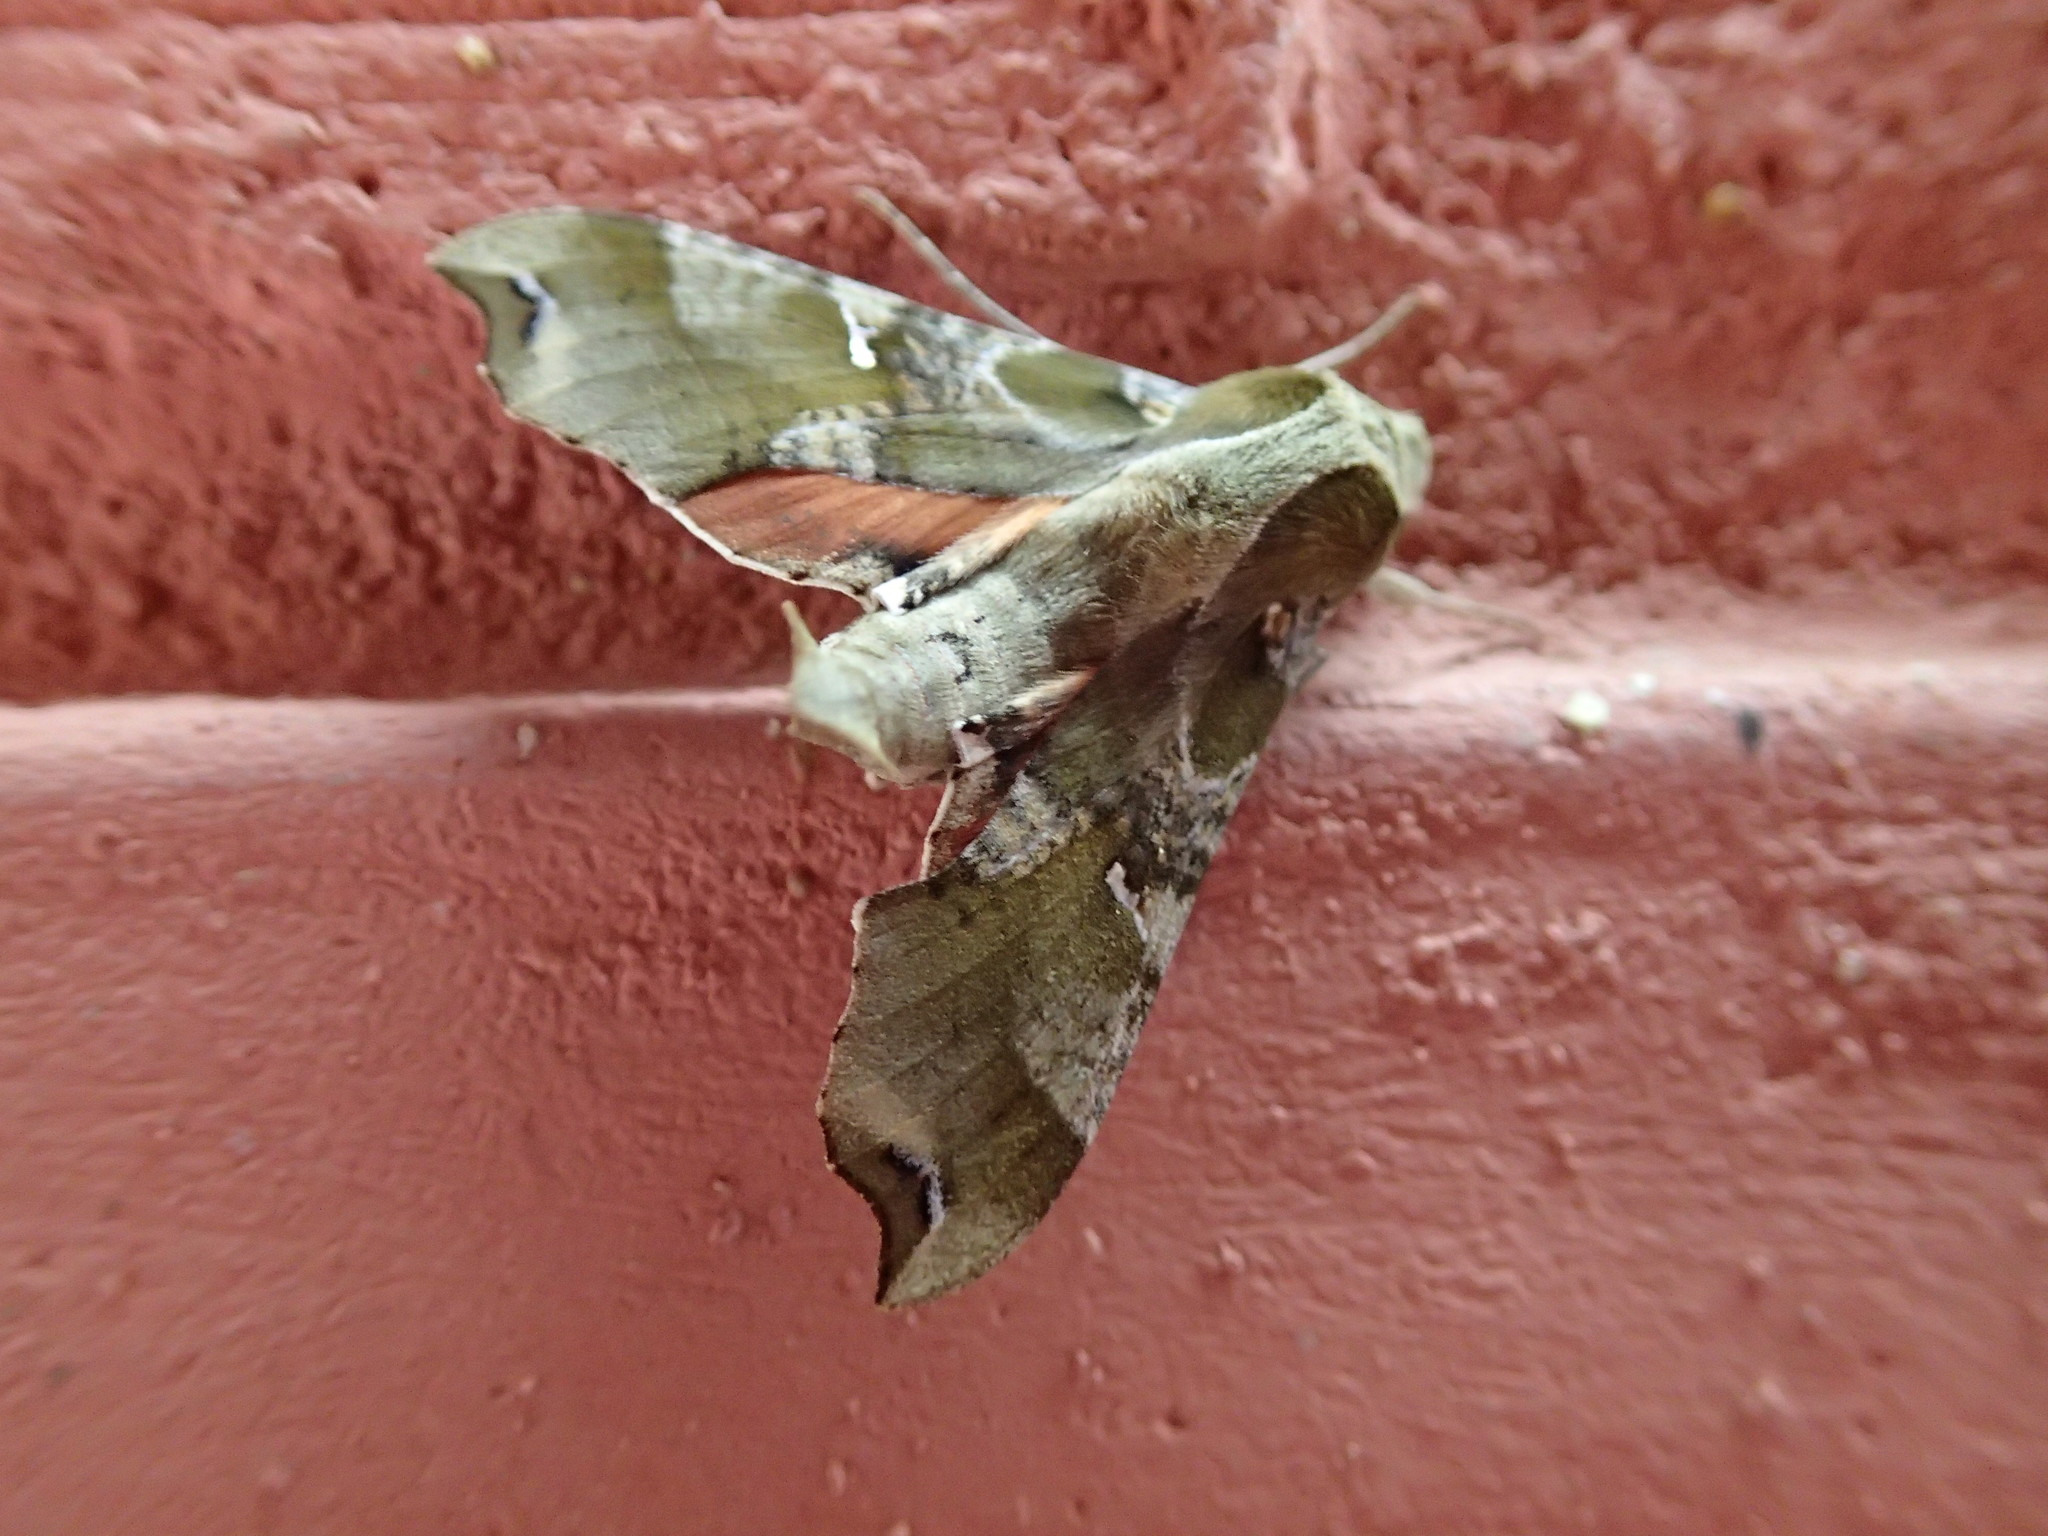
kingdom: Animalia
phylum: Arthropoda
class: Insecta
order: Lepidoptera
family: Sphingidae
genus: Callionima
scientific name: Callionima grisescens
